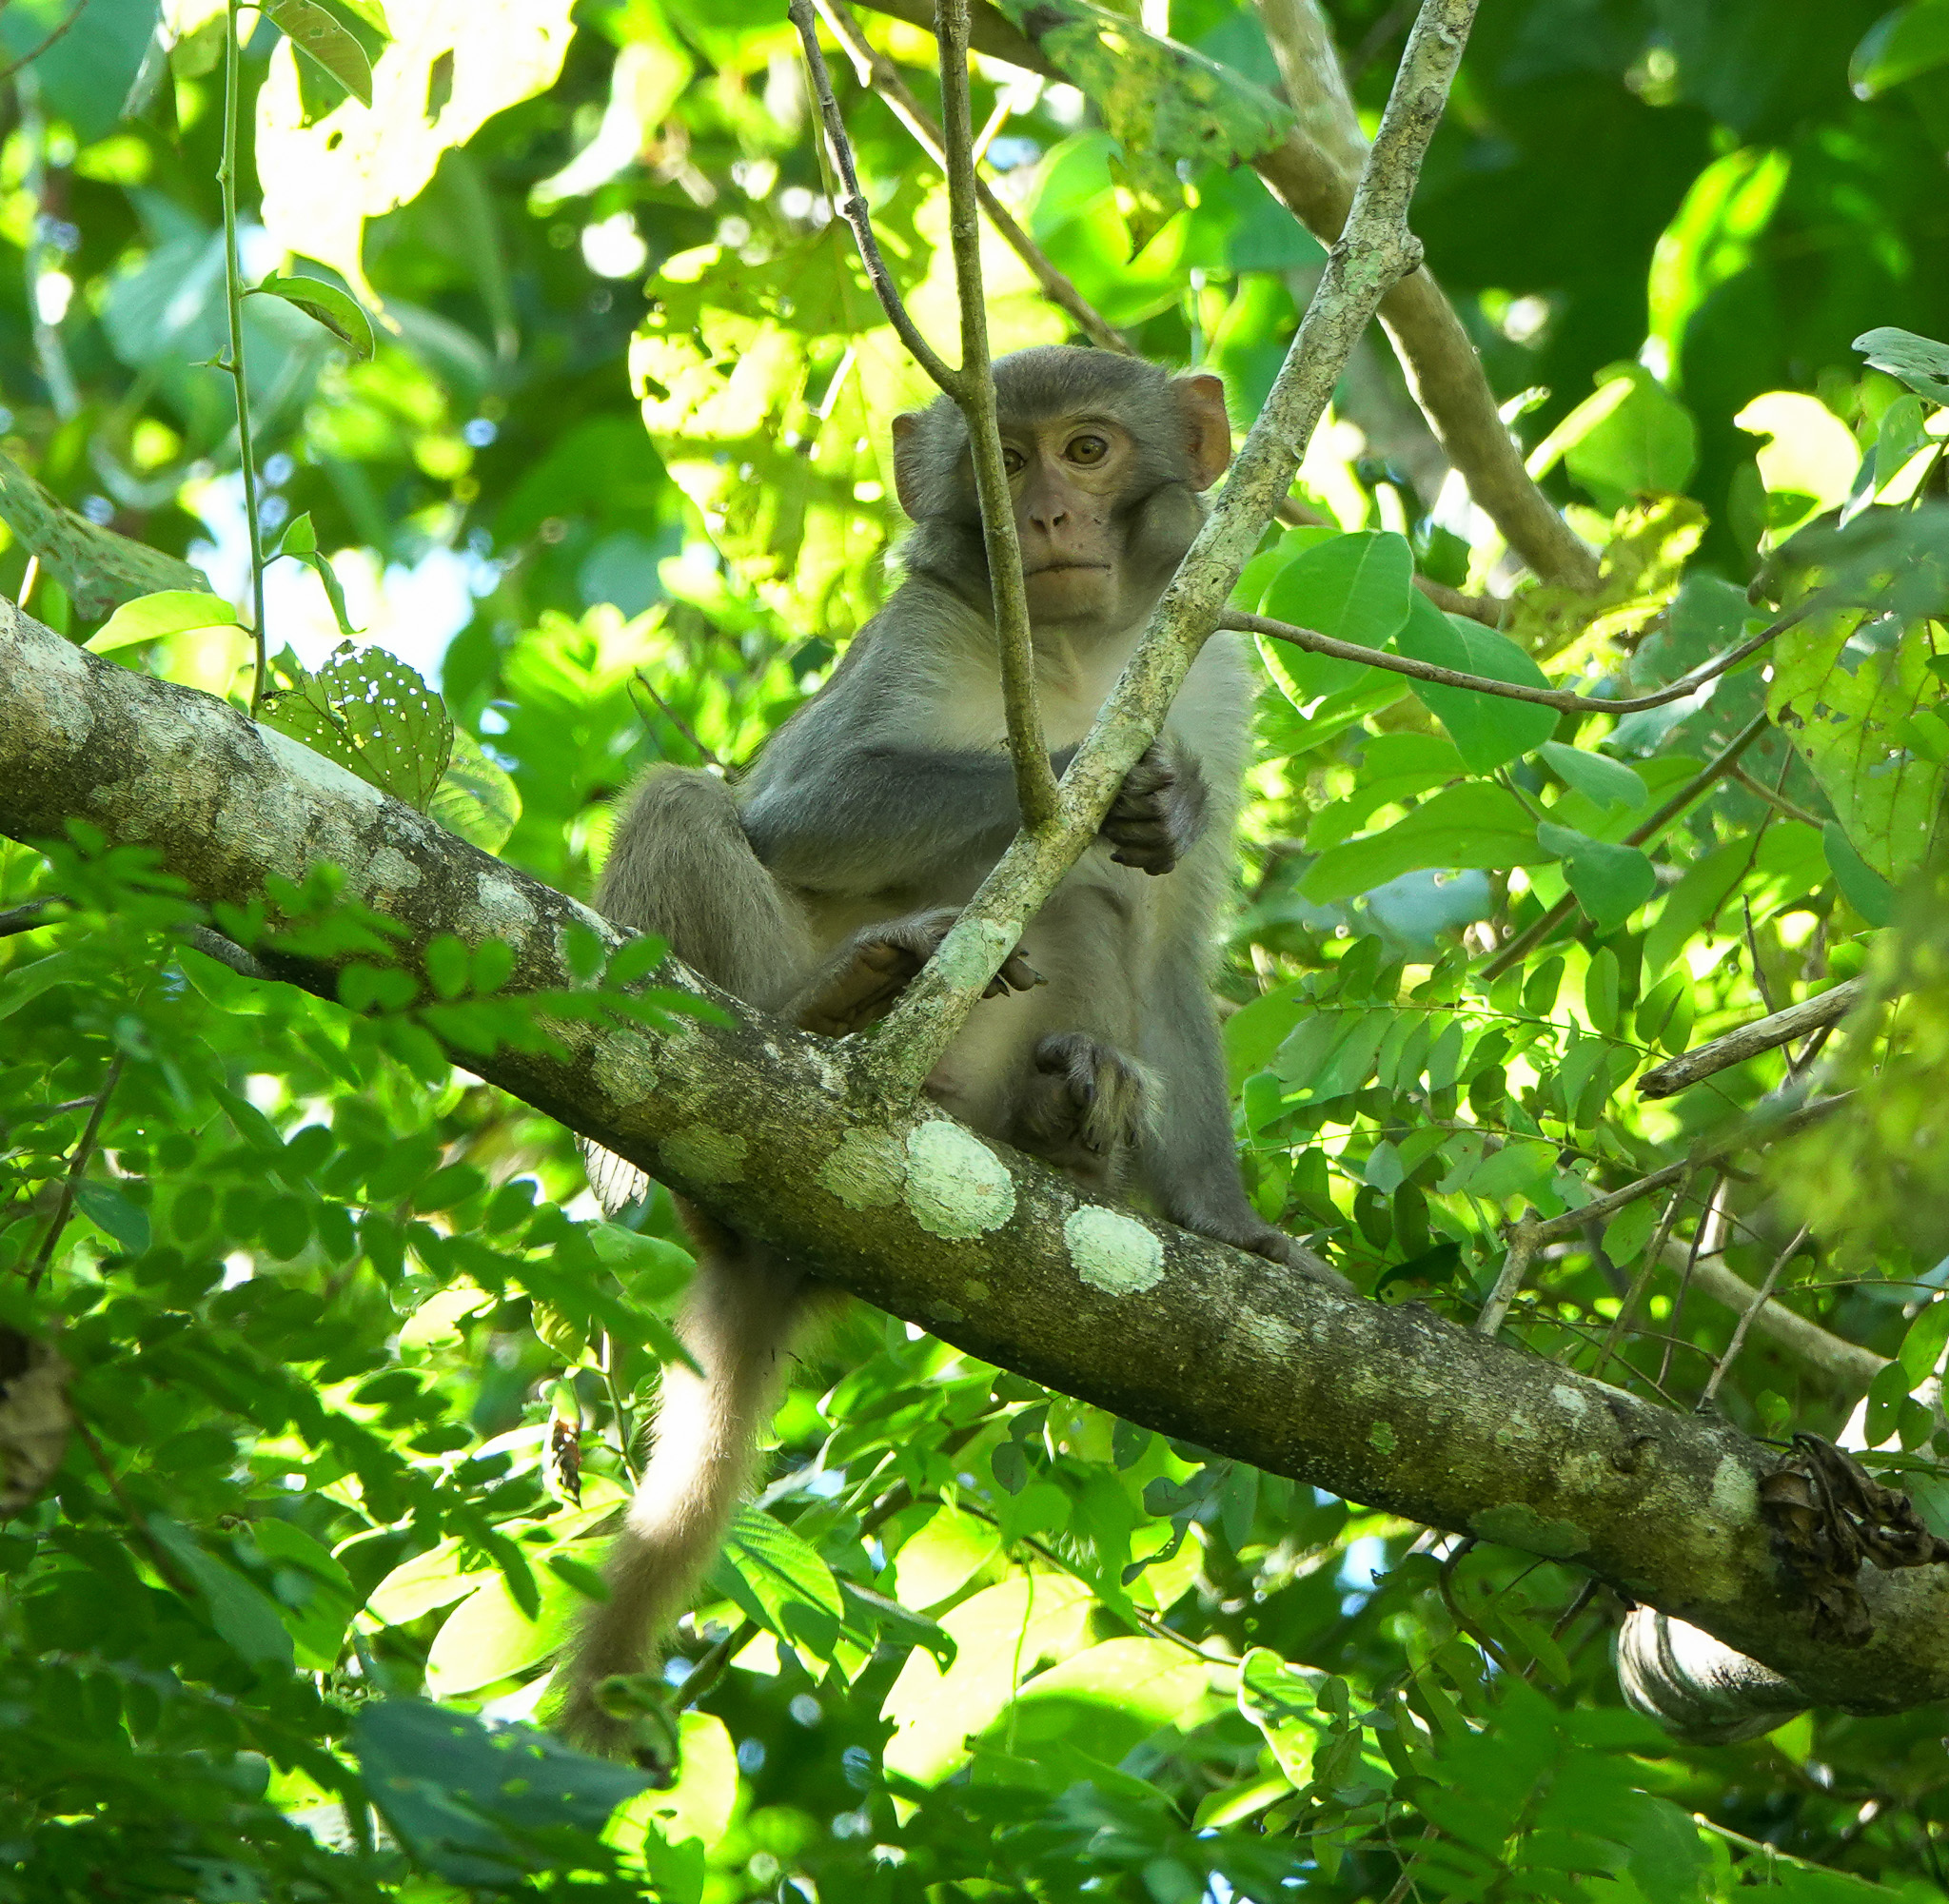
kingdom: Animalia
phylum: Chordata
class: Mammalia
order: Primates
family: Cercopithecidae
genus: Macaca
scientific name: Macaca mulatta
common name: Rhesus monkey
